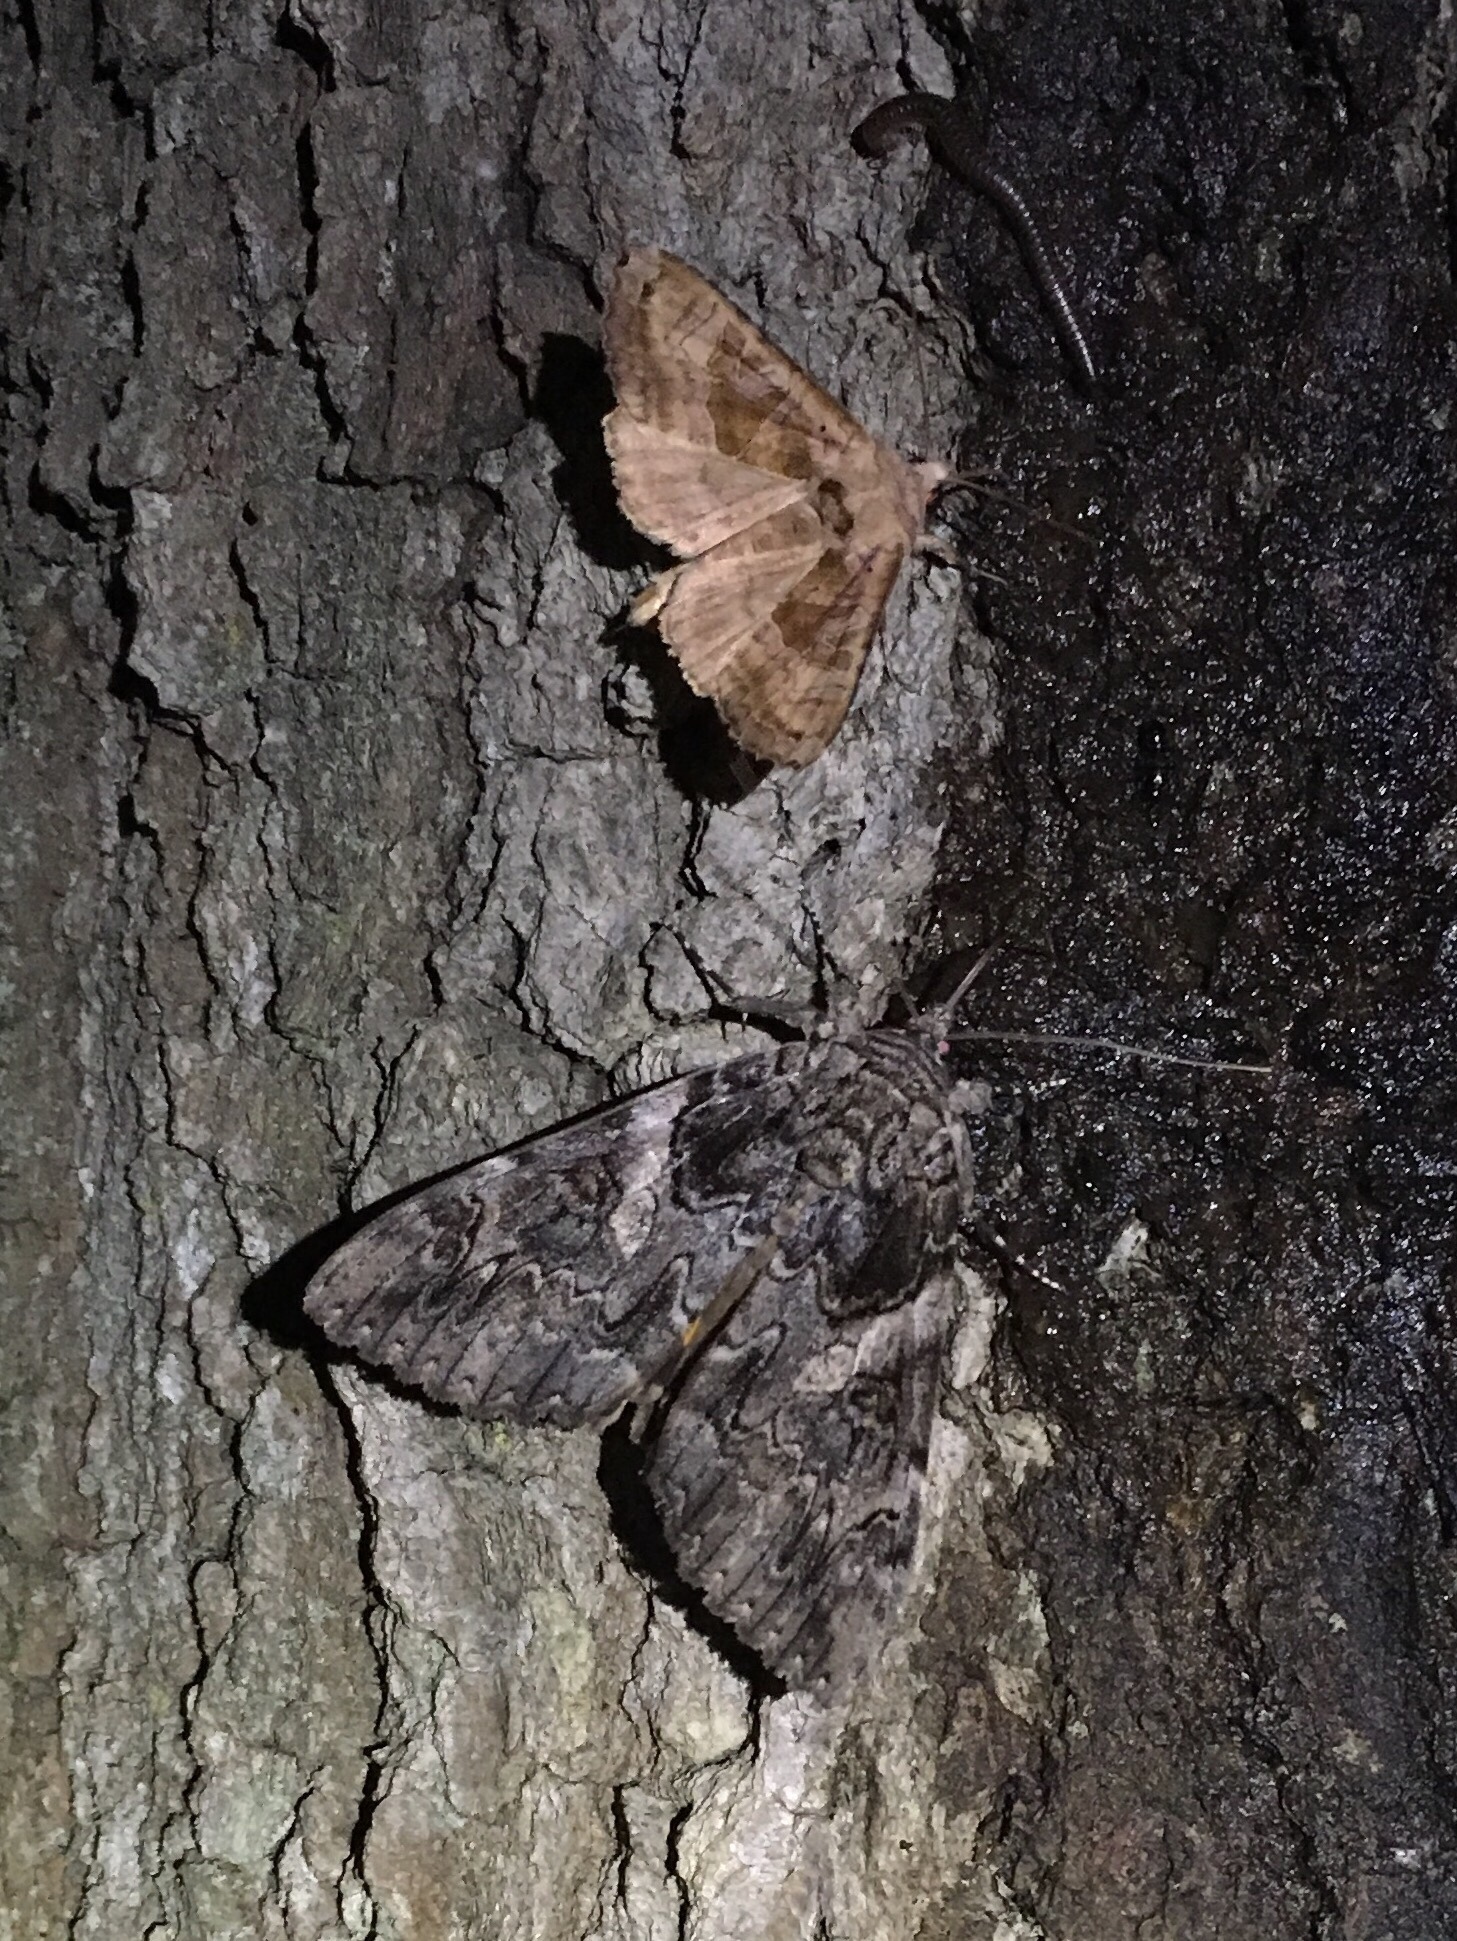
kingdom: Animalia
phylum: Arthropoda
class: Insecta
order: Lepidoptera
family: Erebidae
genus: Catocala
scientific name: Catocala piatrix
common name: The penitent underwing
